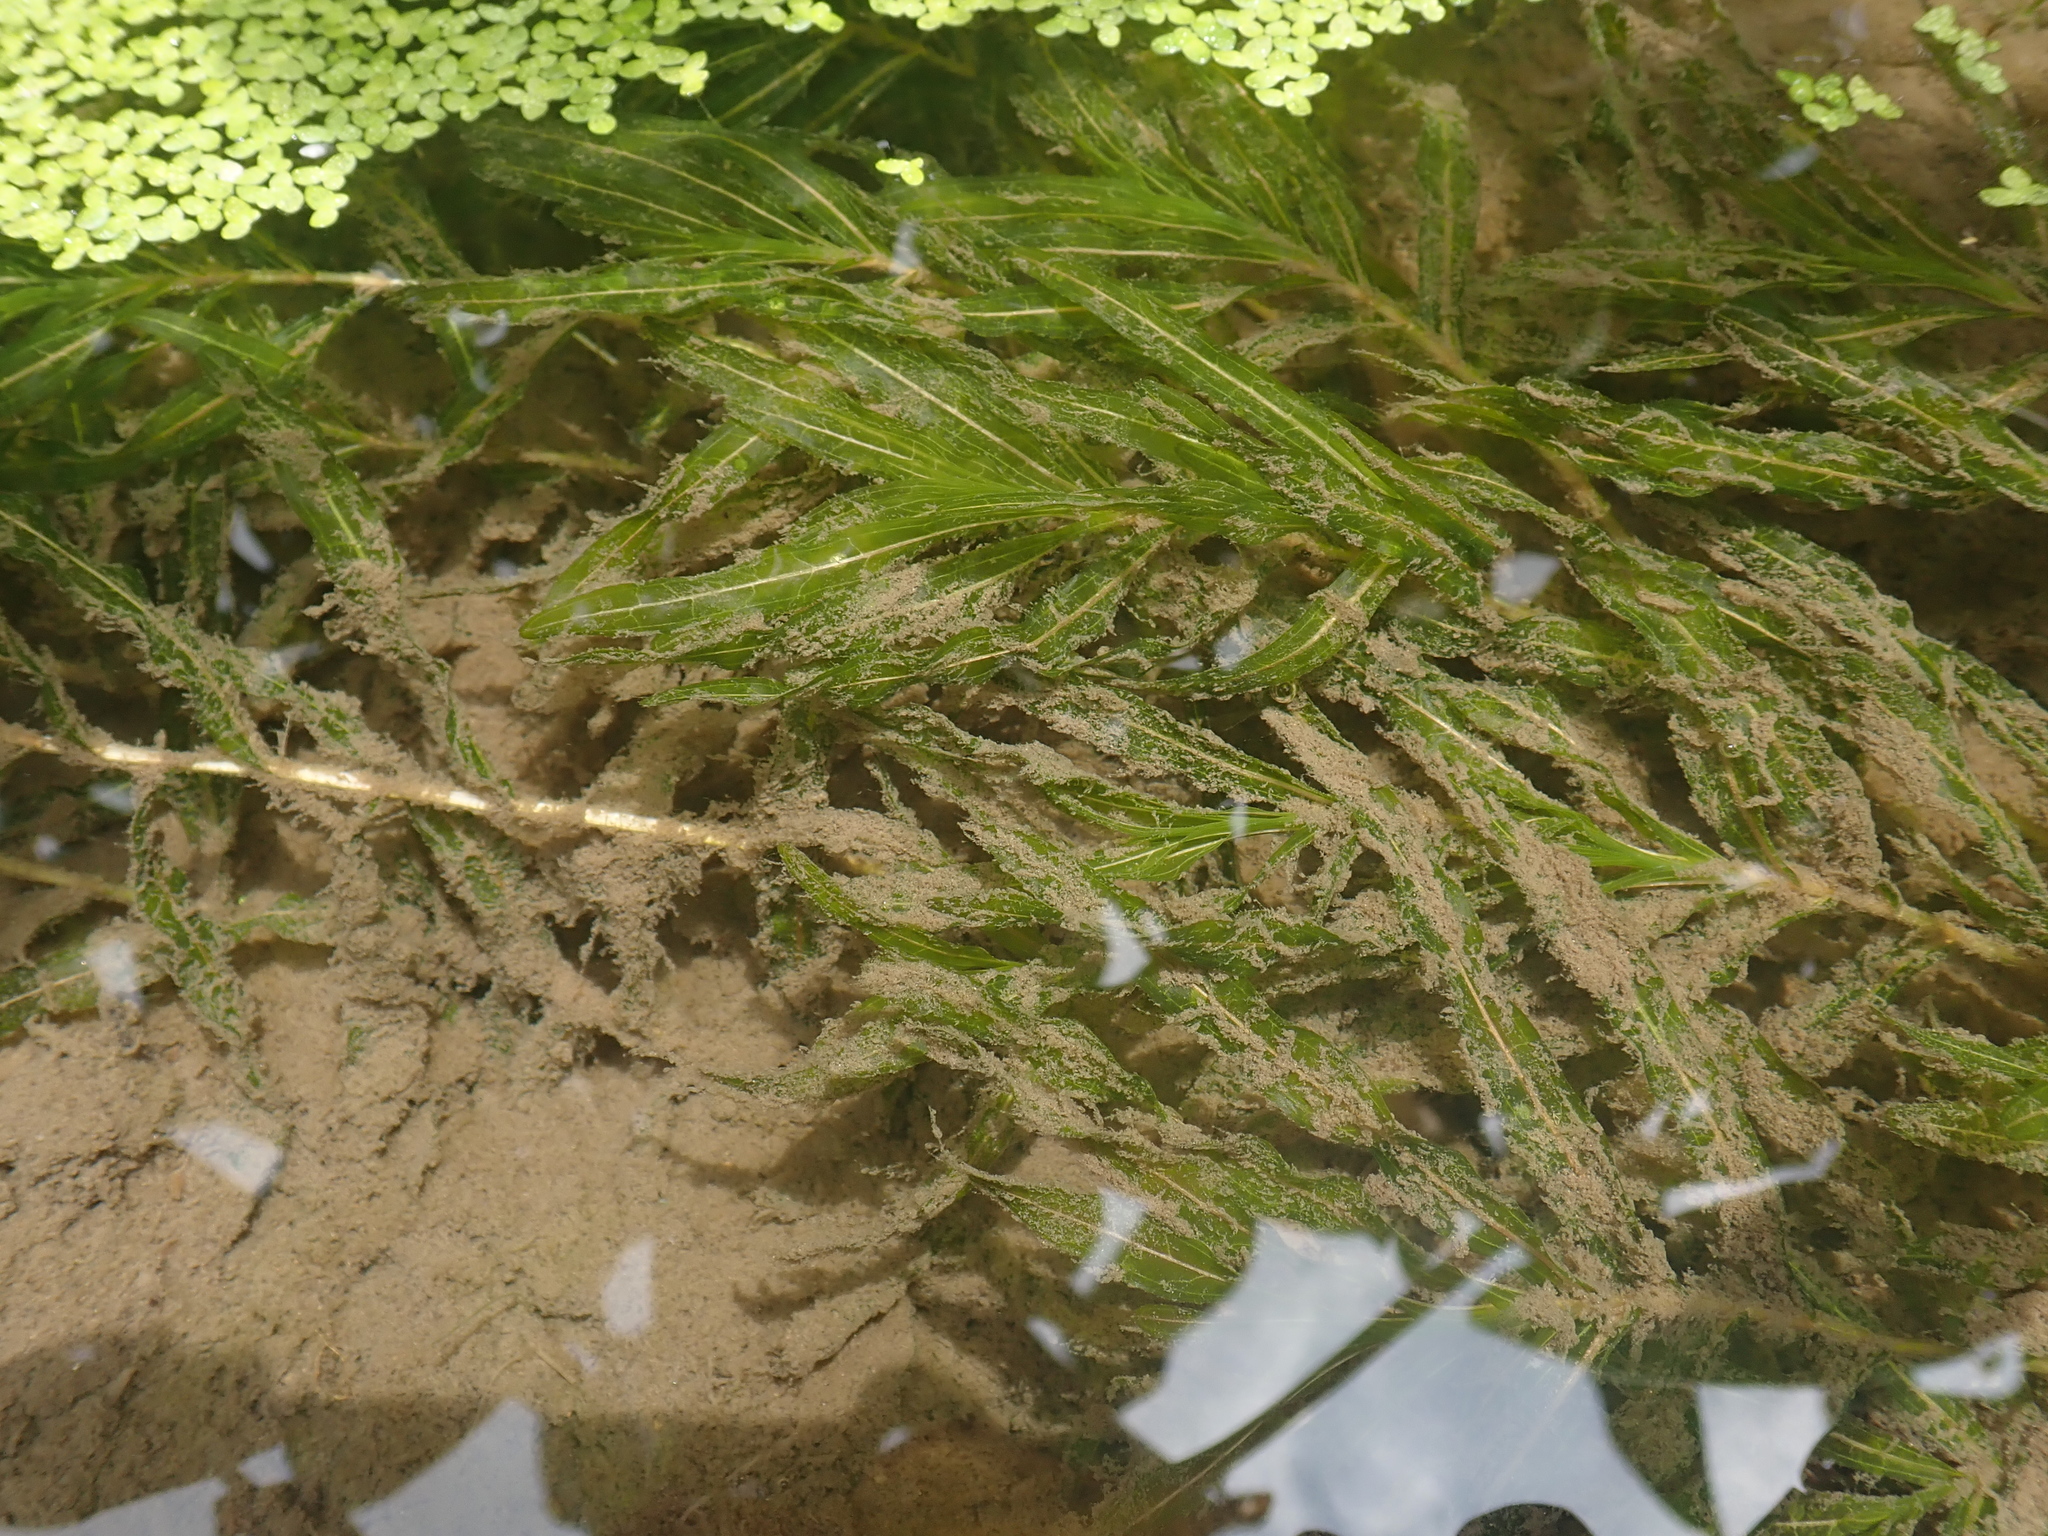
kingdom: Plantae
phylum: Tracheophyta
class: Liliopsida
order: Alismatales
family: Potamogetonaceae
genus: Potamogeton
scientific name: Potamogeton crispus
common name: Curled pondweed
